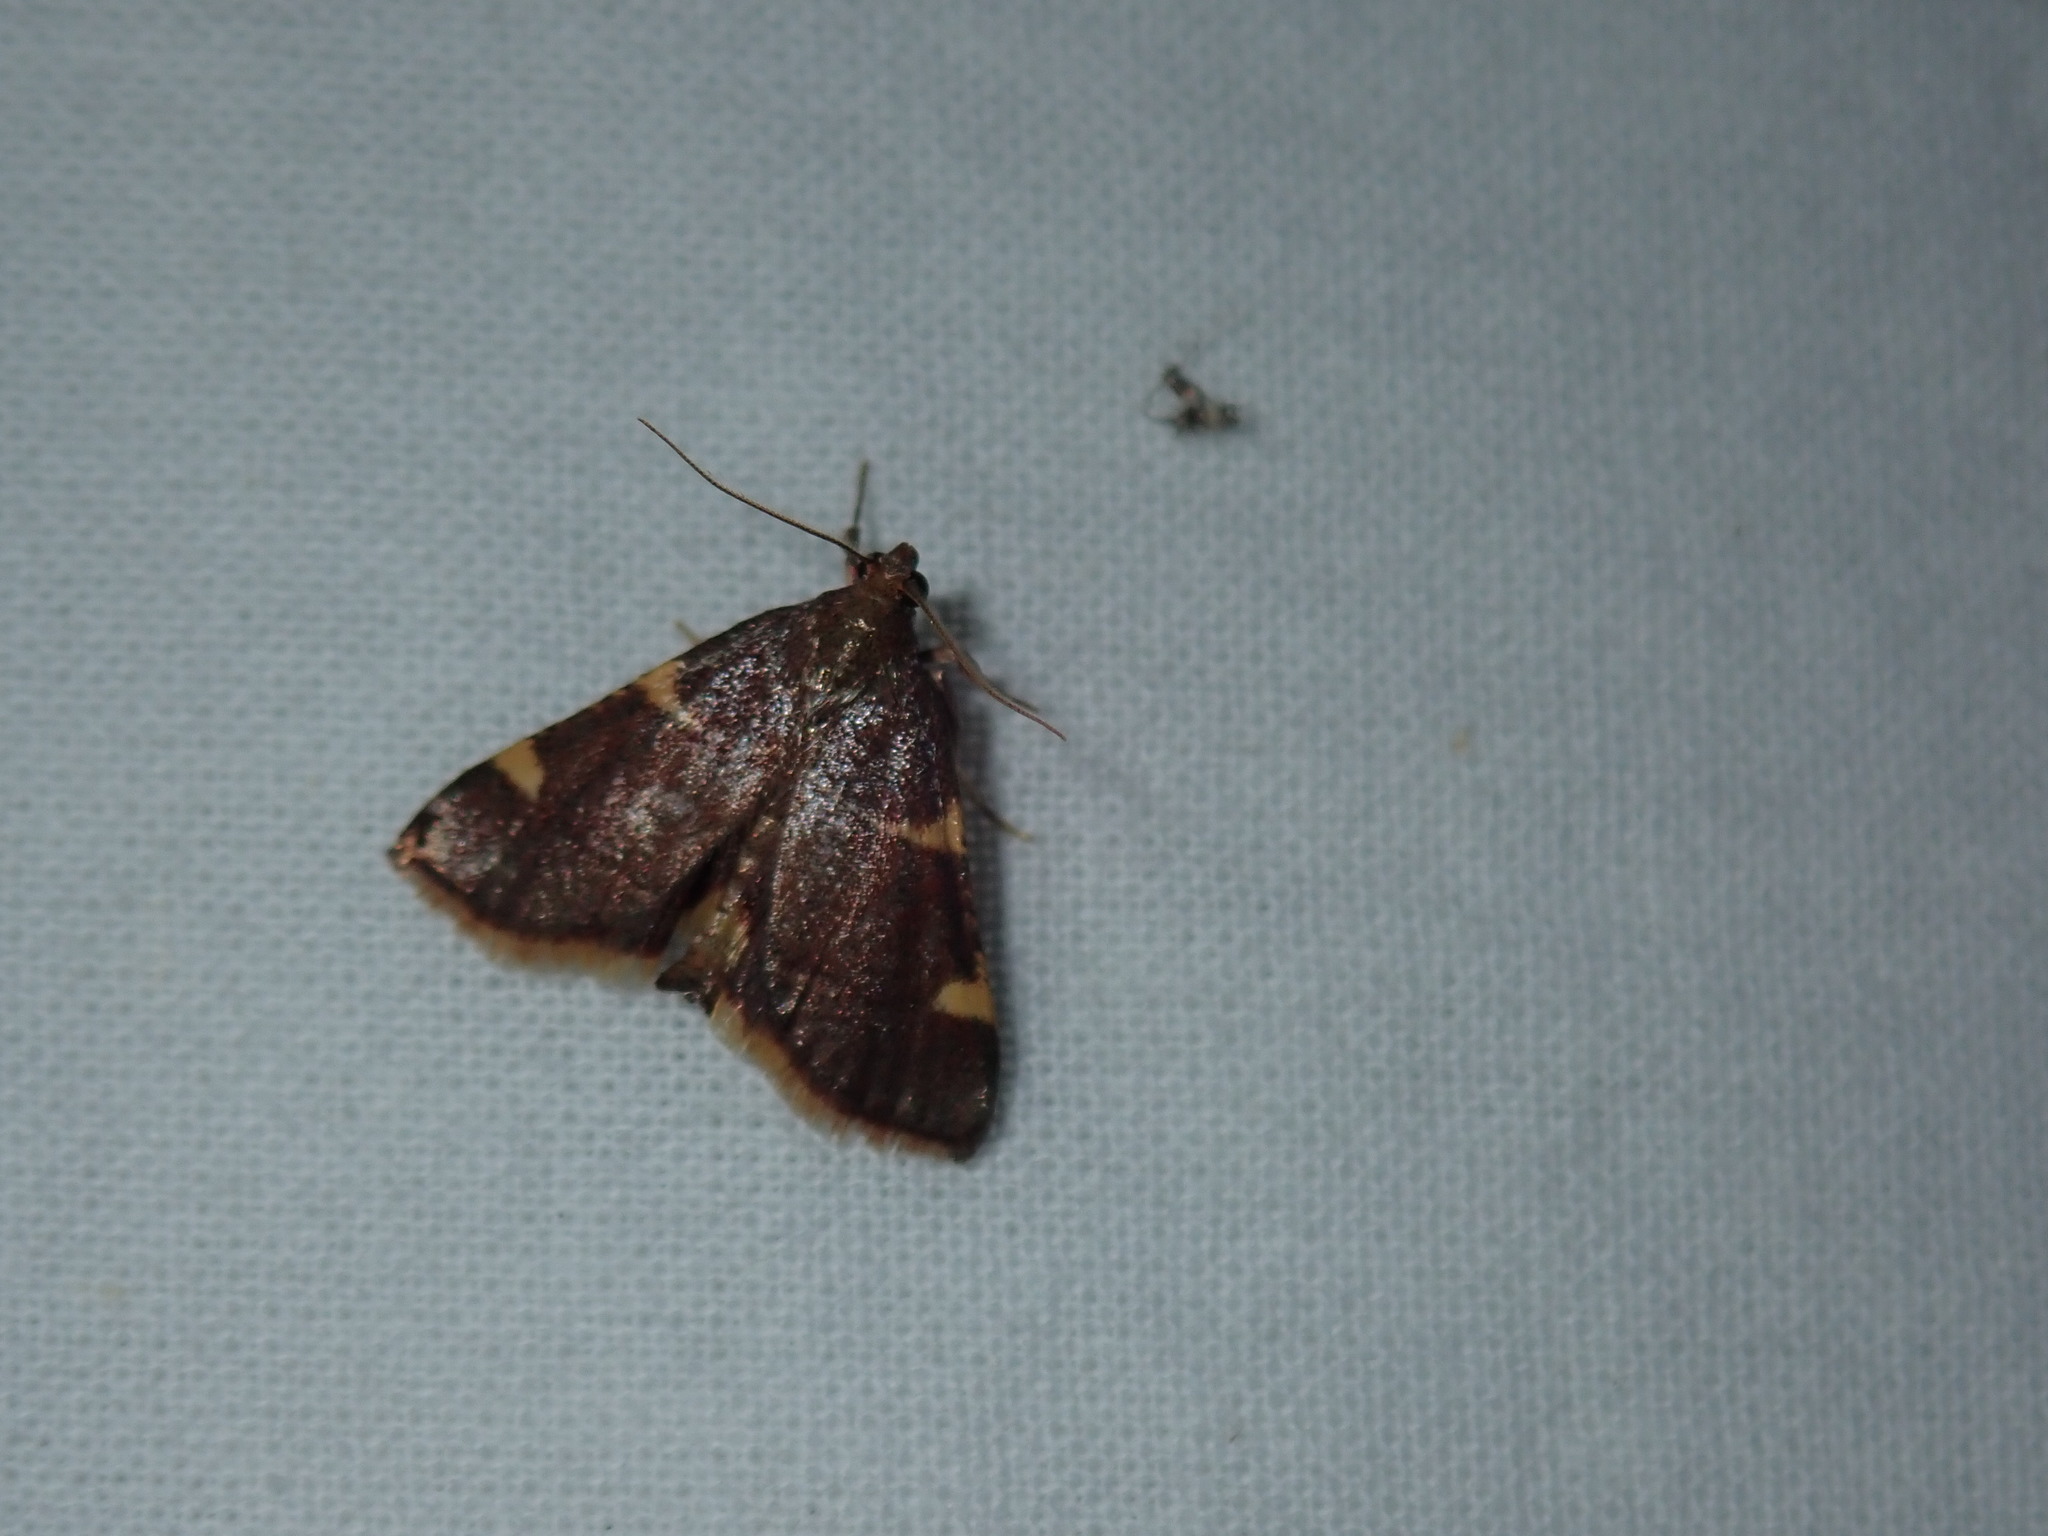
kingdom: Animalia
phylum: Arthropoda
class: Insecta
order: Lepidoptera
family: Pyralidae
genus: Hypsopygia
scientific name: Hypsopygia olinalis
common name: Yellow-fringed dolichomia moth
